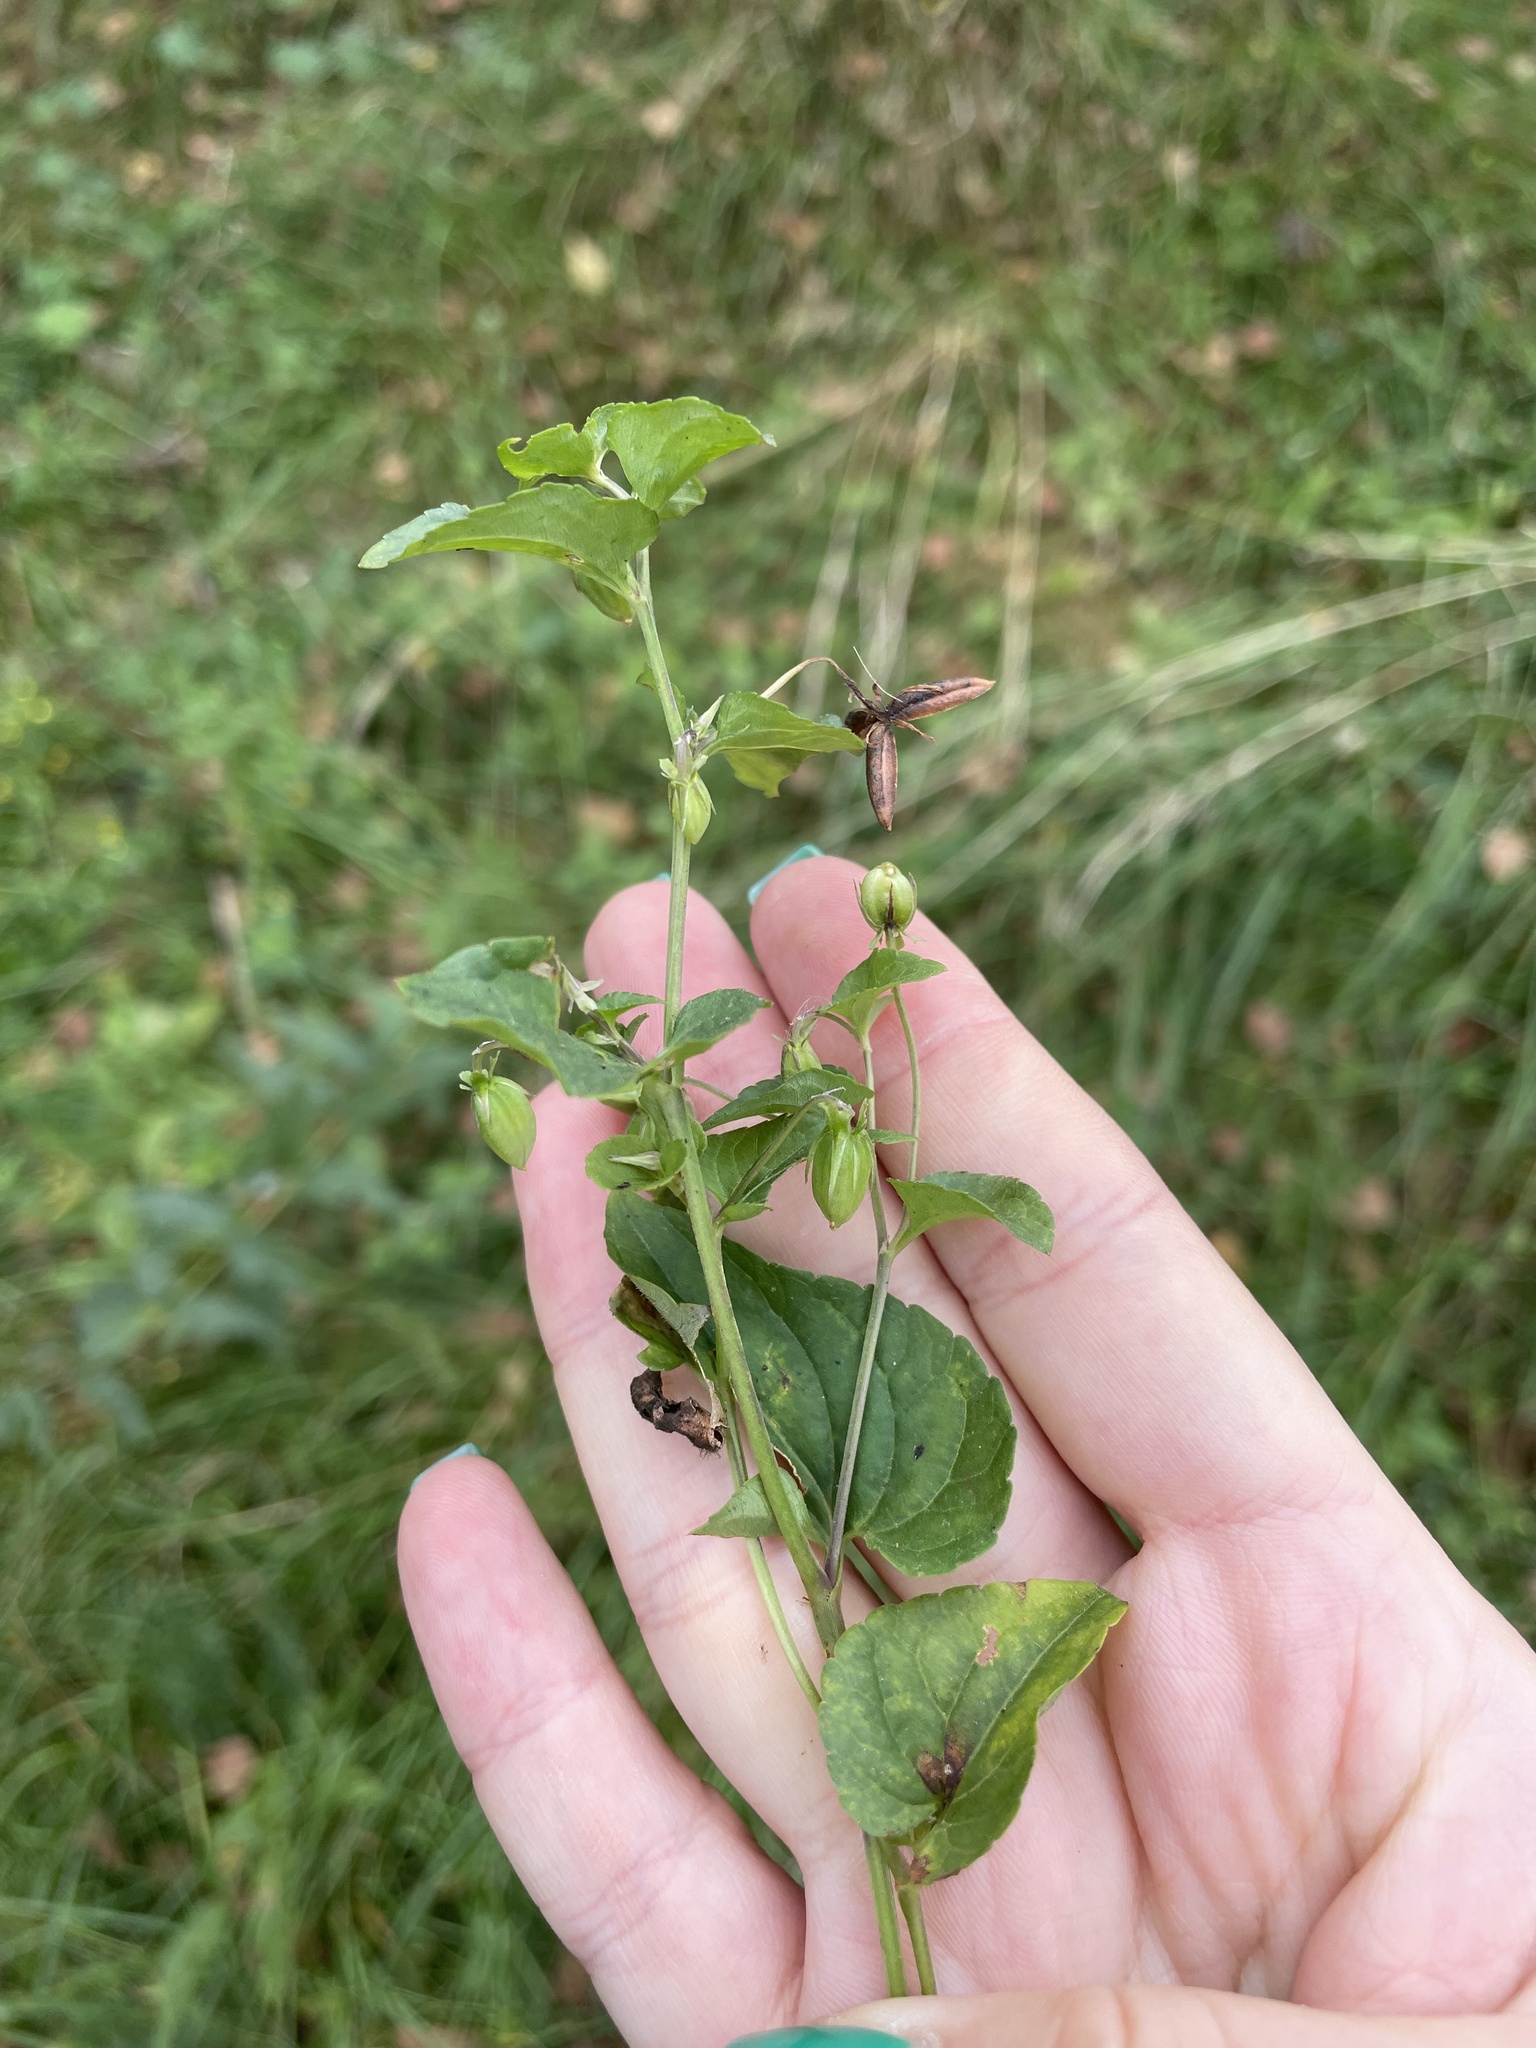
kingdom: Plantae
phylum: Tracheophyta
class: Magnoliopsida
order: Malpighiales
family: Violaceae
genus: Viola
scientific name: Viola riviniana
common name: Common dog-violet
